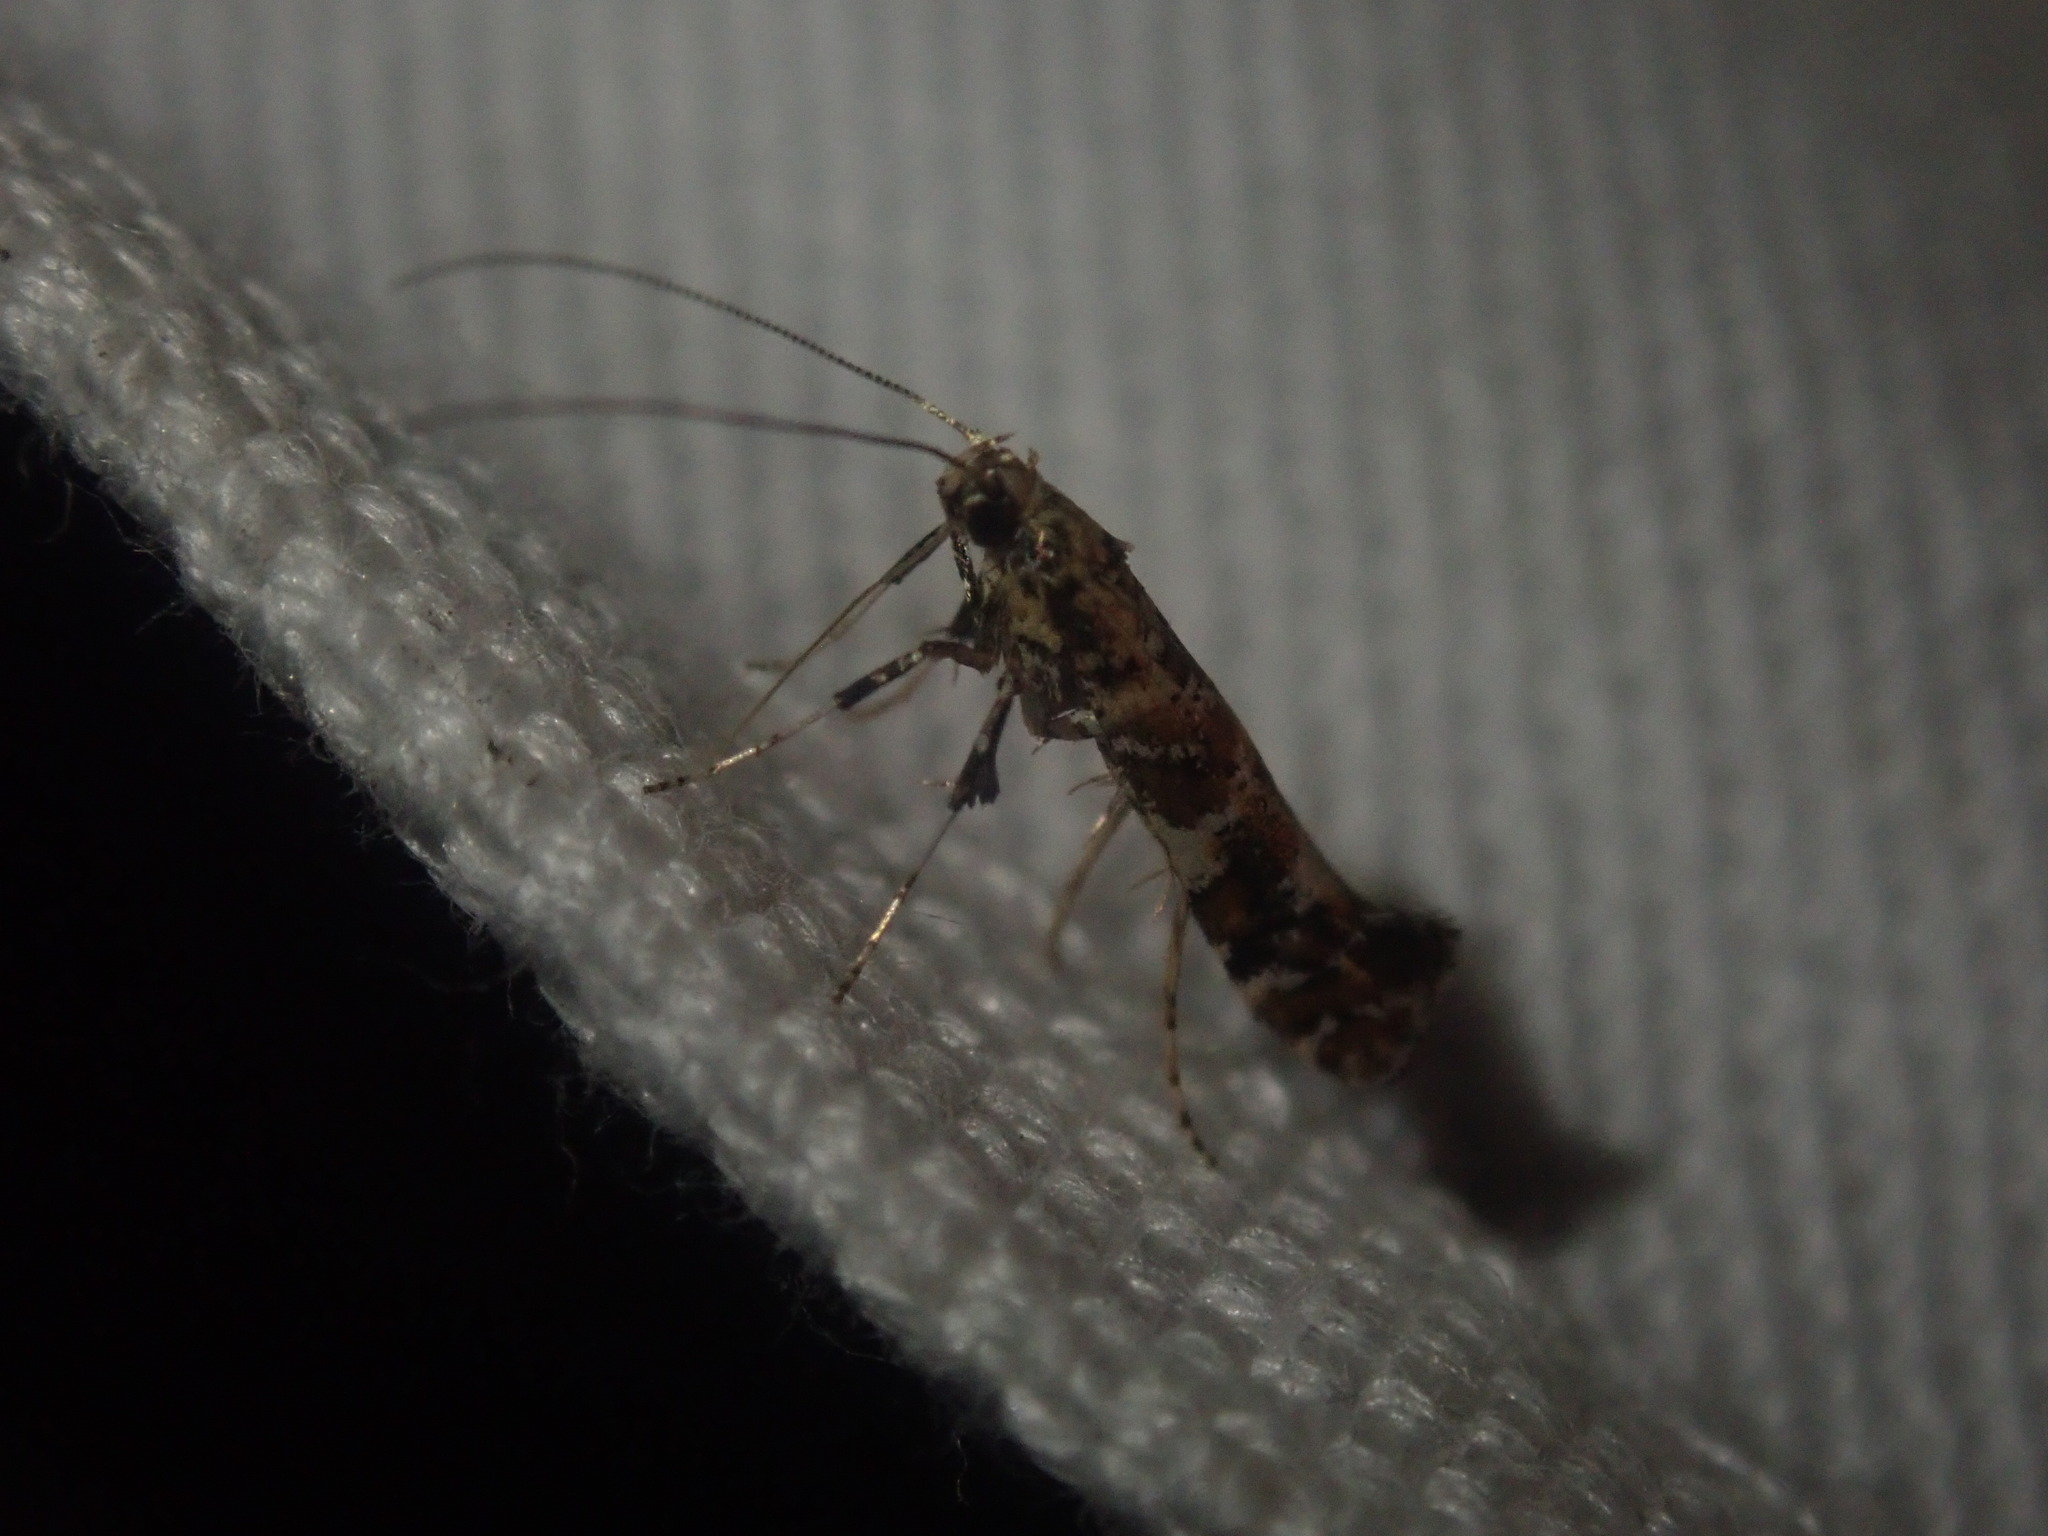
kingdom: Animalia
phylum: Arthropoda
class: Insecta
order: Lepidoptera
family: Gracillariidae
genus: Gracillaria
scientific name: Gracillaria syringella
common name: Common slender
